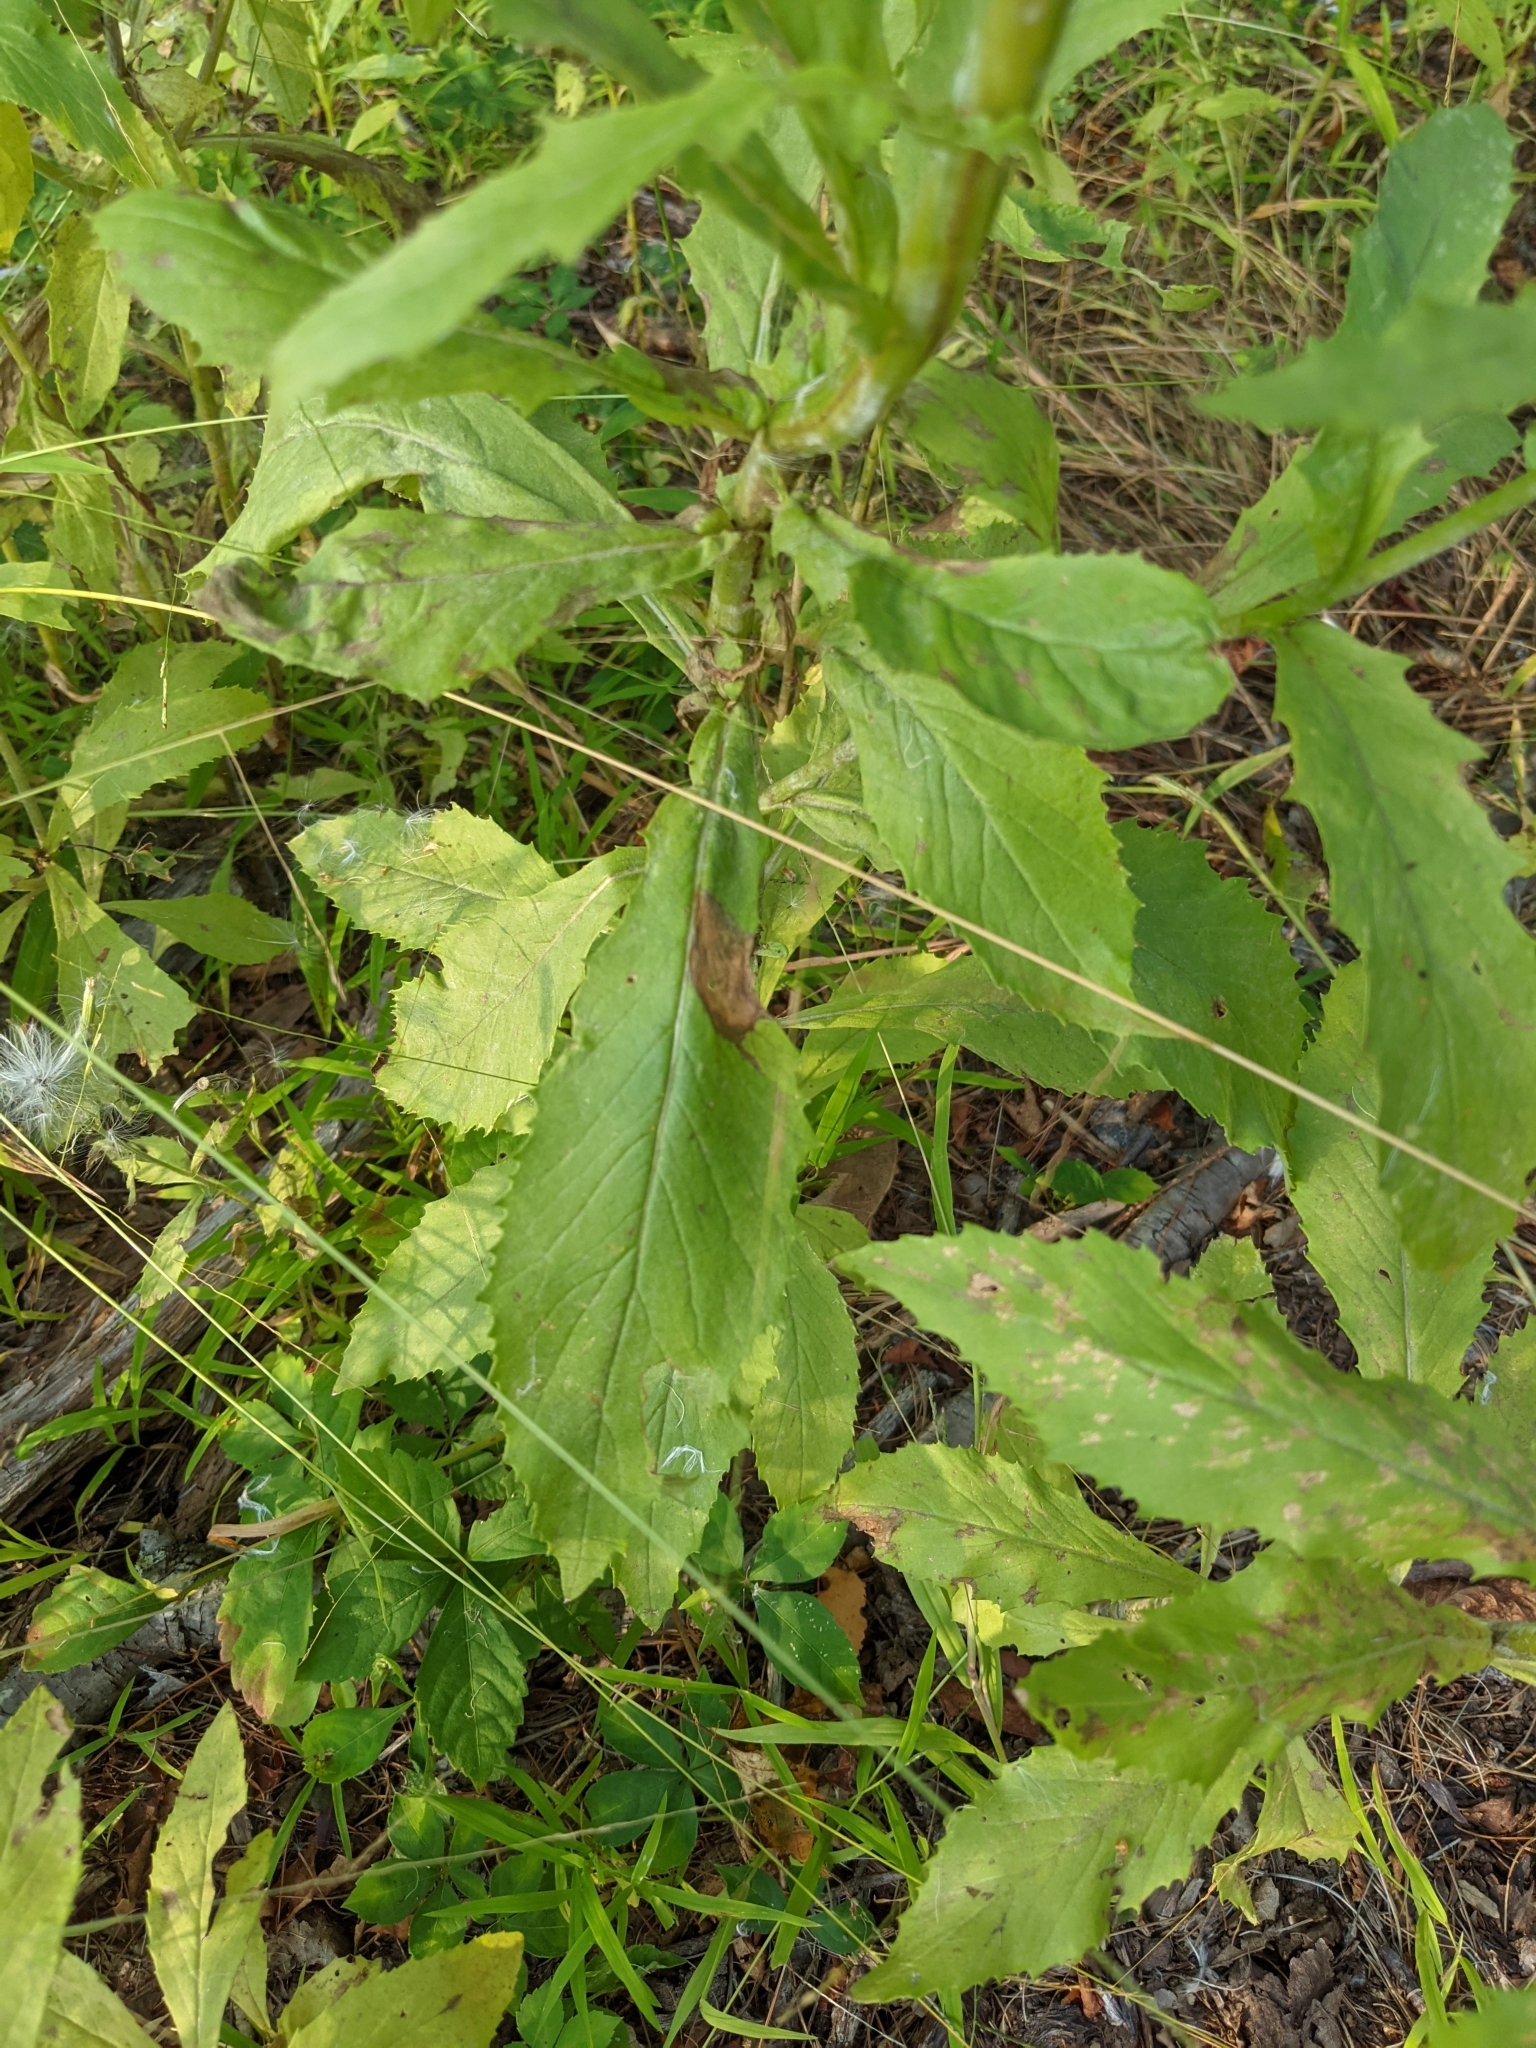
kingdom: Plantae
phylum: Tracheophyta
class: Magnoliopsida
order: Asterales
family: Asteraceae
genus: Erechtites
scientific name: Erechtites hieraciifolius
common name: American burnweed
